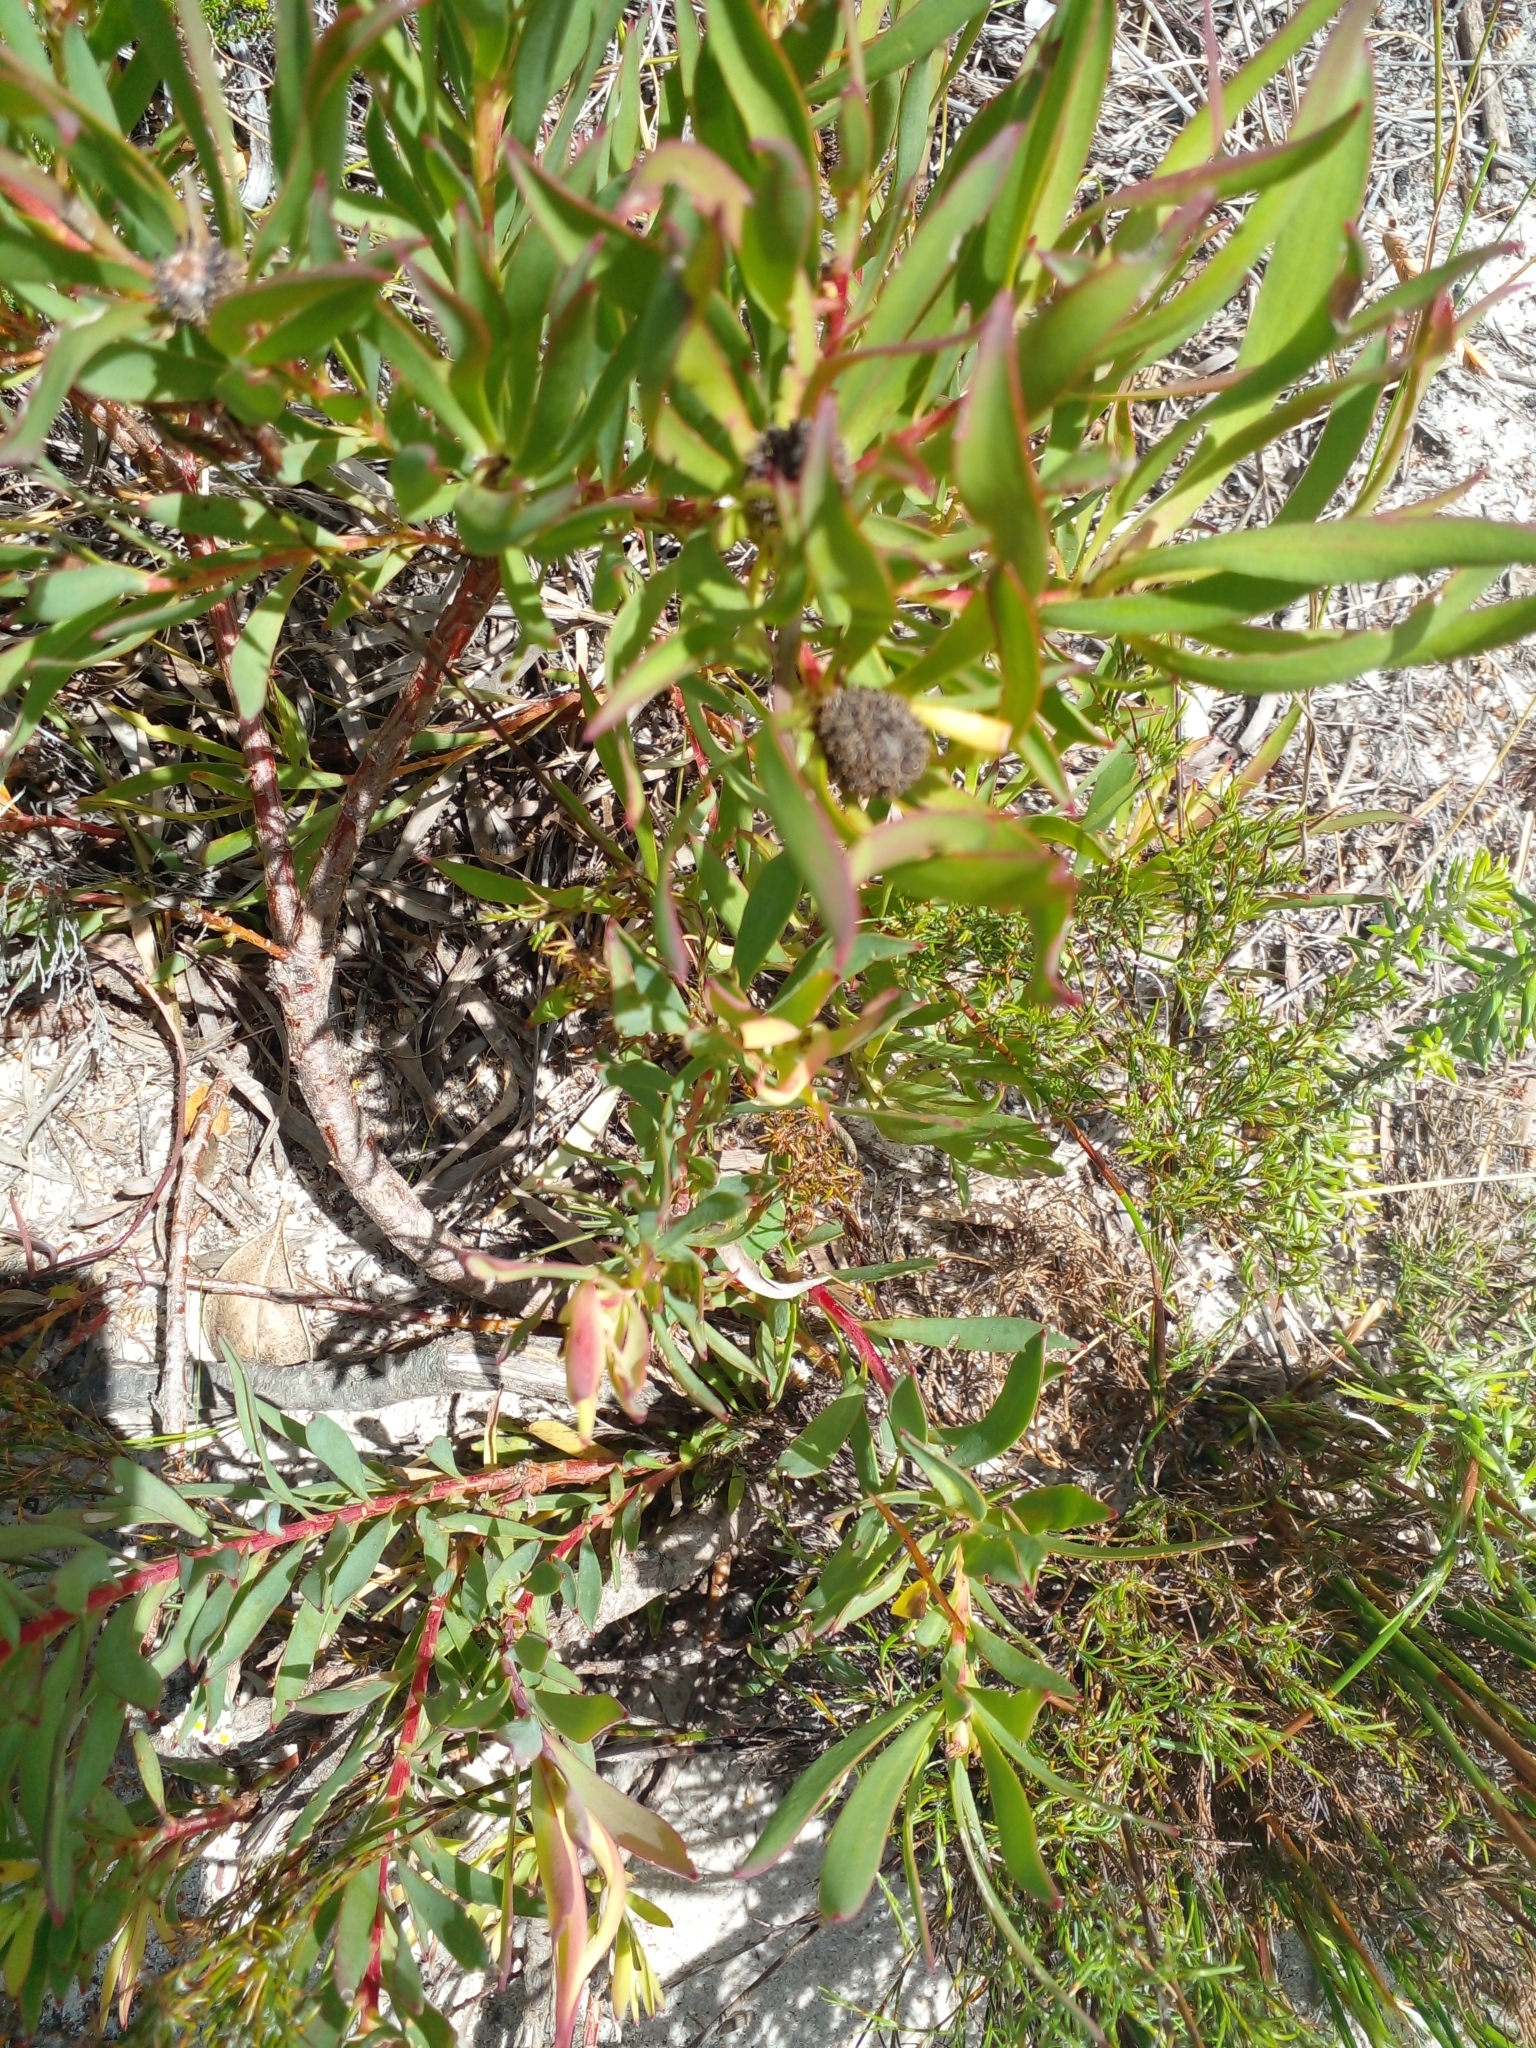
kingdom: Plantae
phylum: Tracheophyta
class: Magnoliopsida
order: Proteales
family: Proteaceae
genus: Leucadendron
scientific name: Leucadendron salignum
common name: Common sunshine conebush
